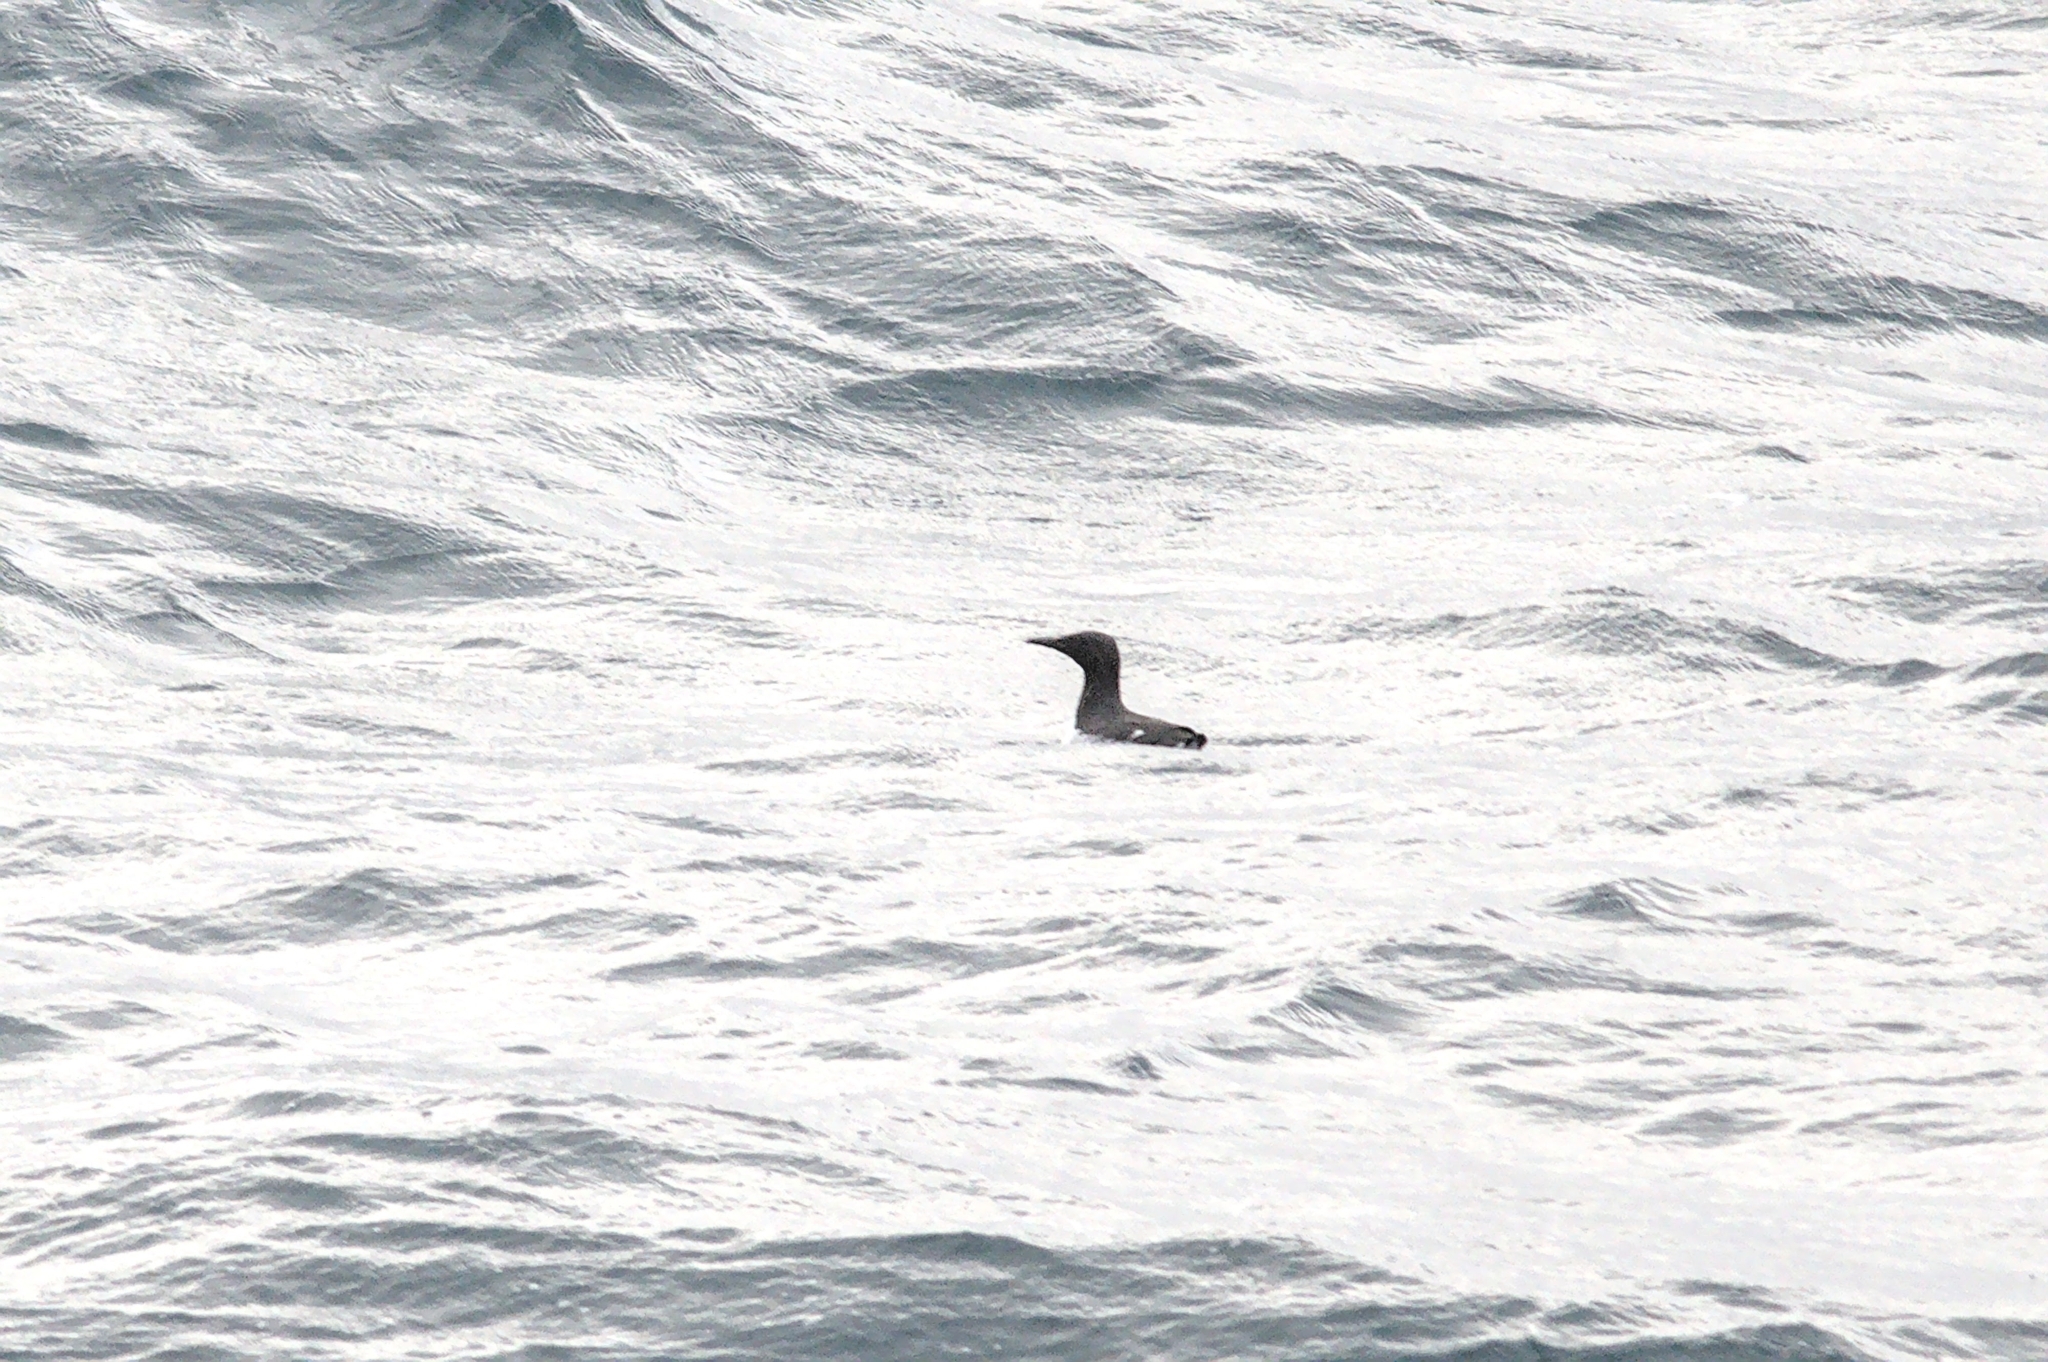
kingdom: Animalia
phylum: Chordata
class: Aves
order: Charadriiformes
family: Alcidae
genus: Uria
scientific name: Uria aalge
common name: Common murre
